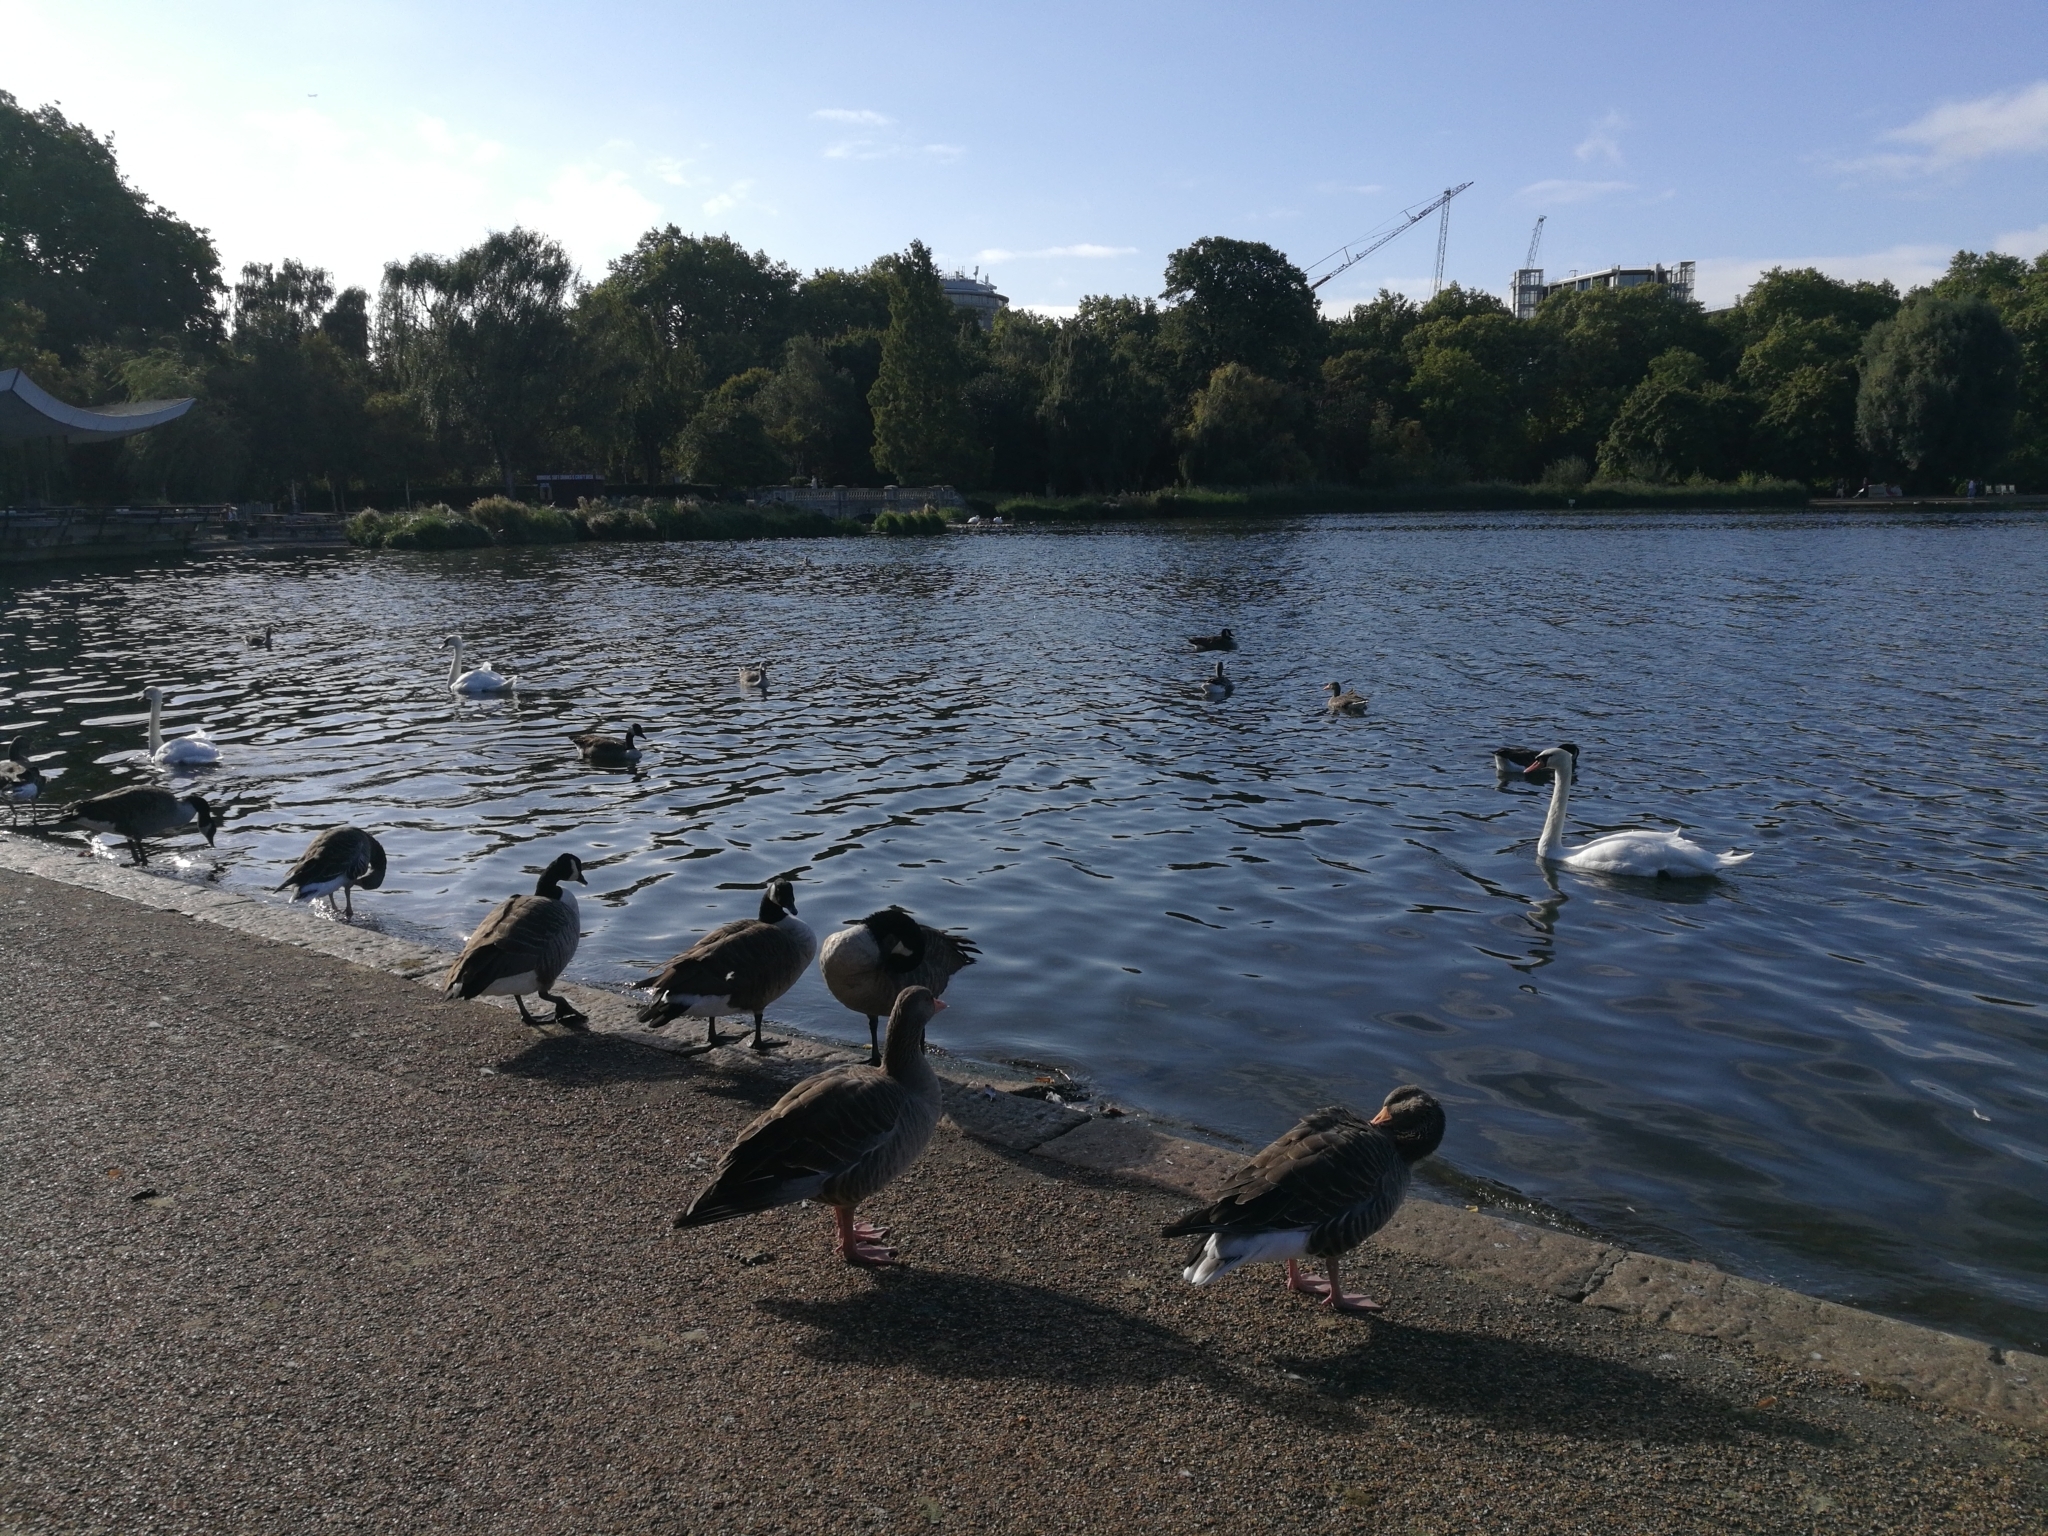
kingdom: Animalia
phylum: Chordata
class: Aves
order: Anseriformes
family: Anatidae
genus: Anser
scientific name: Anser anser
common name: Greylag goose
